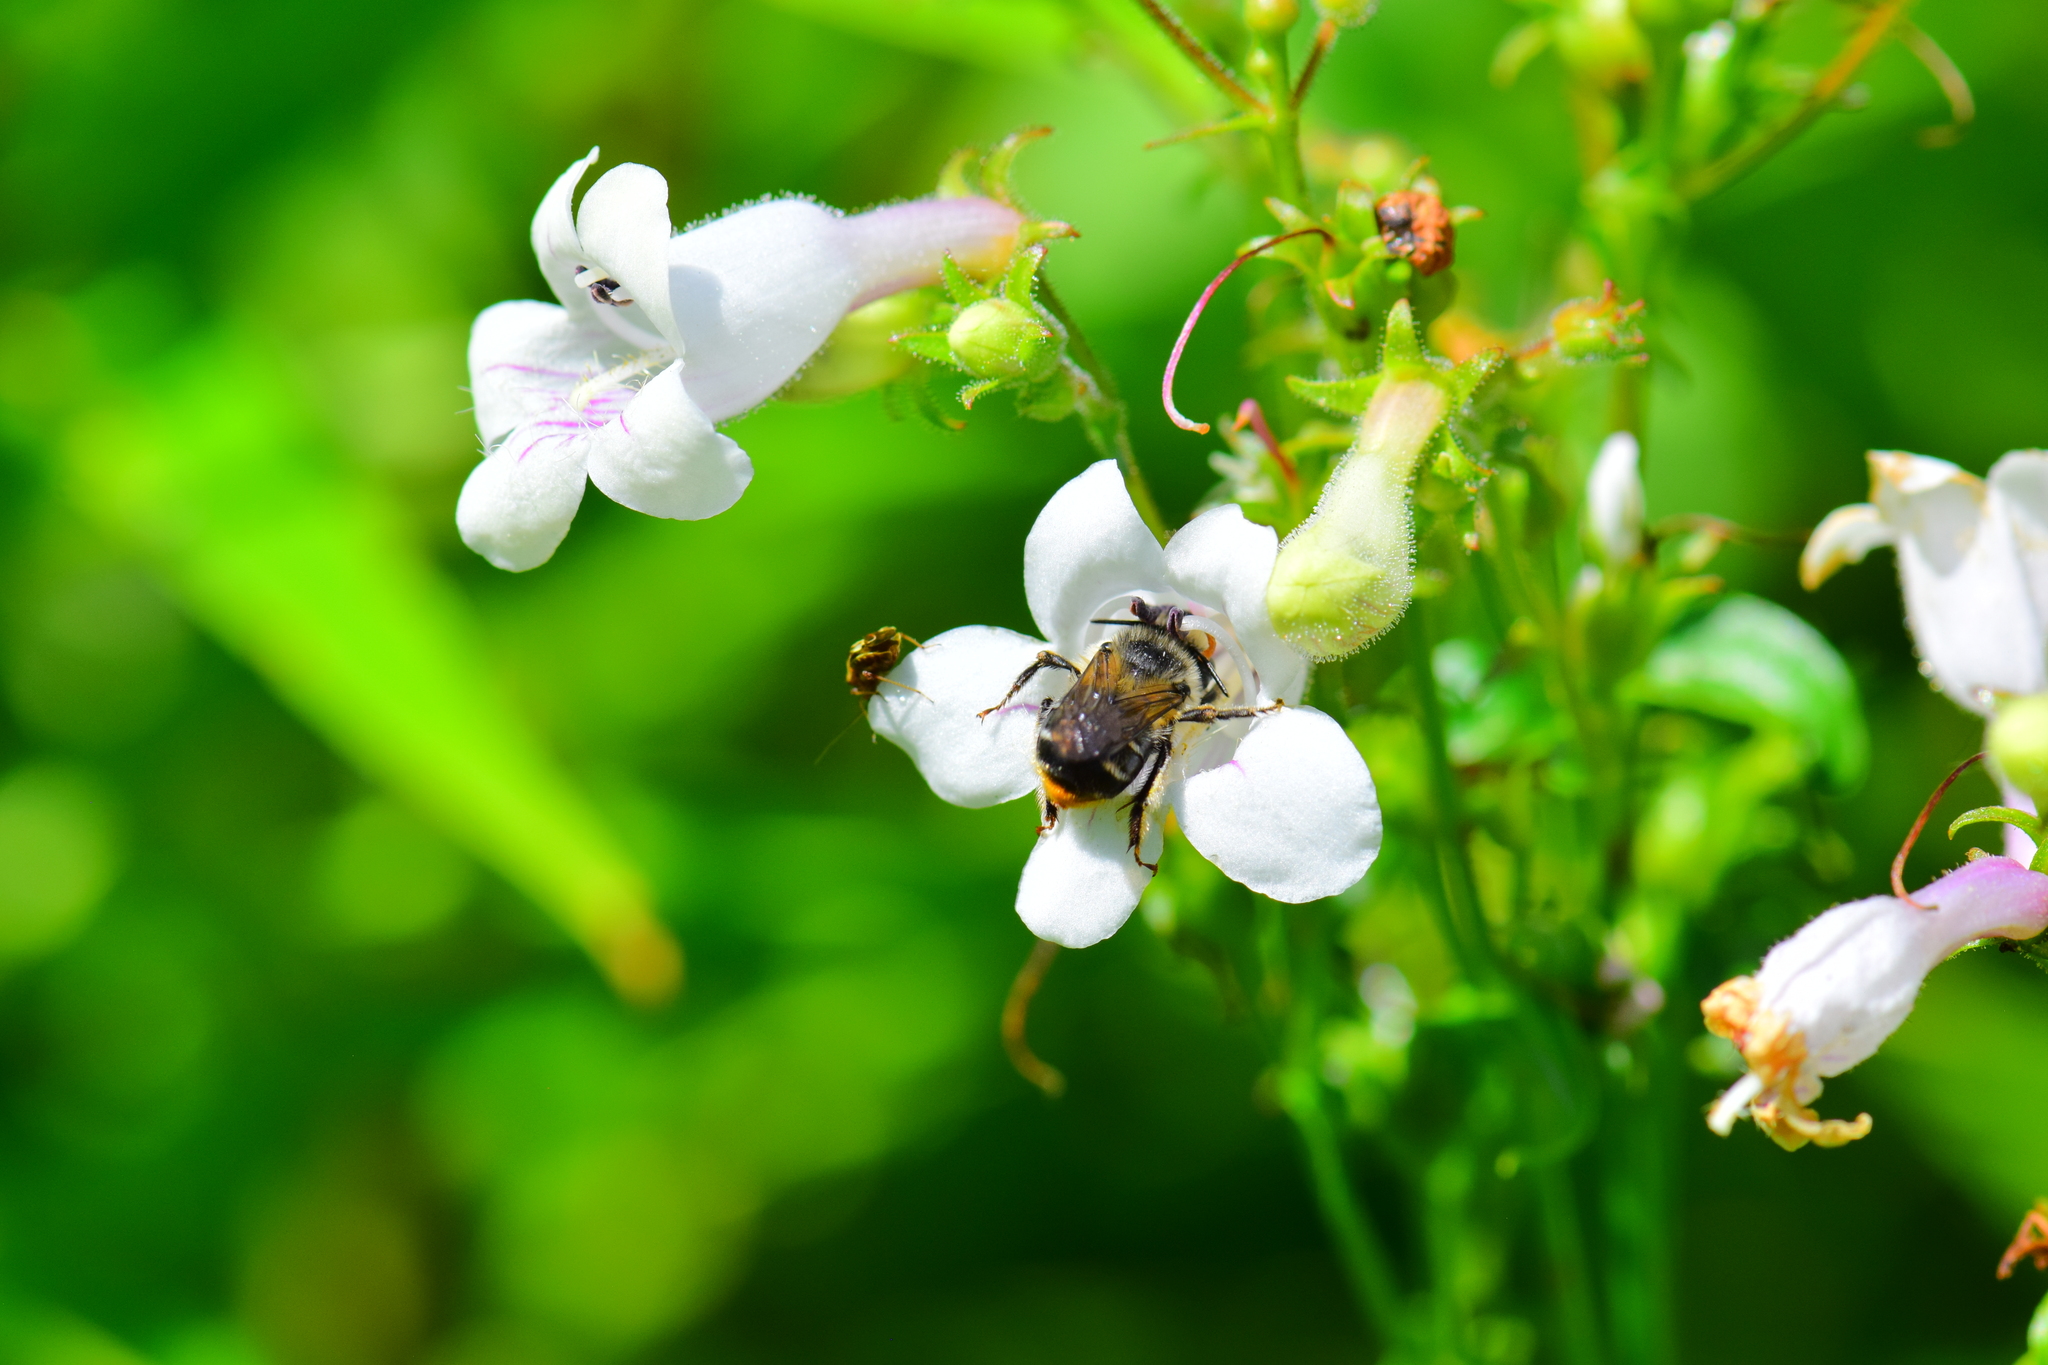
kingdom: Animalia
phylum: Arthropoda
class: Insecta
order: Hymenoptera
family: Apidae
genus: Anthophora
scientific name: Anthophora terminalis
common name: Orange-tipped wood-digger bee
